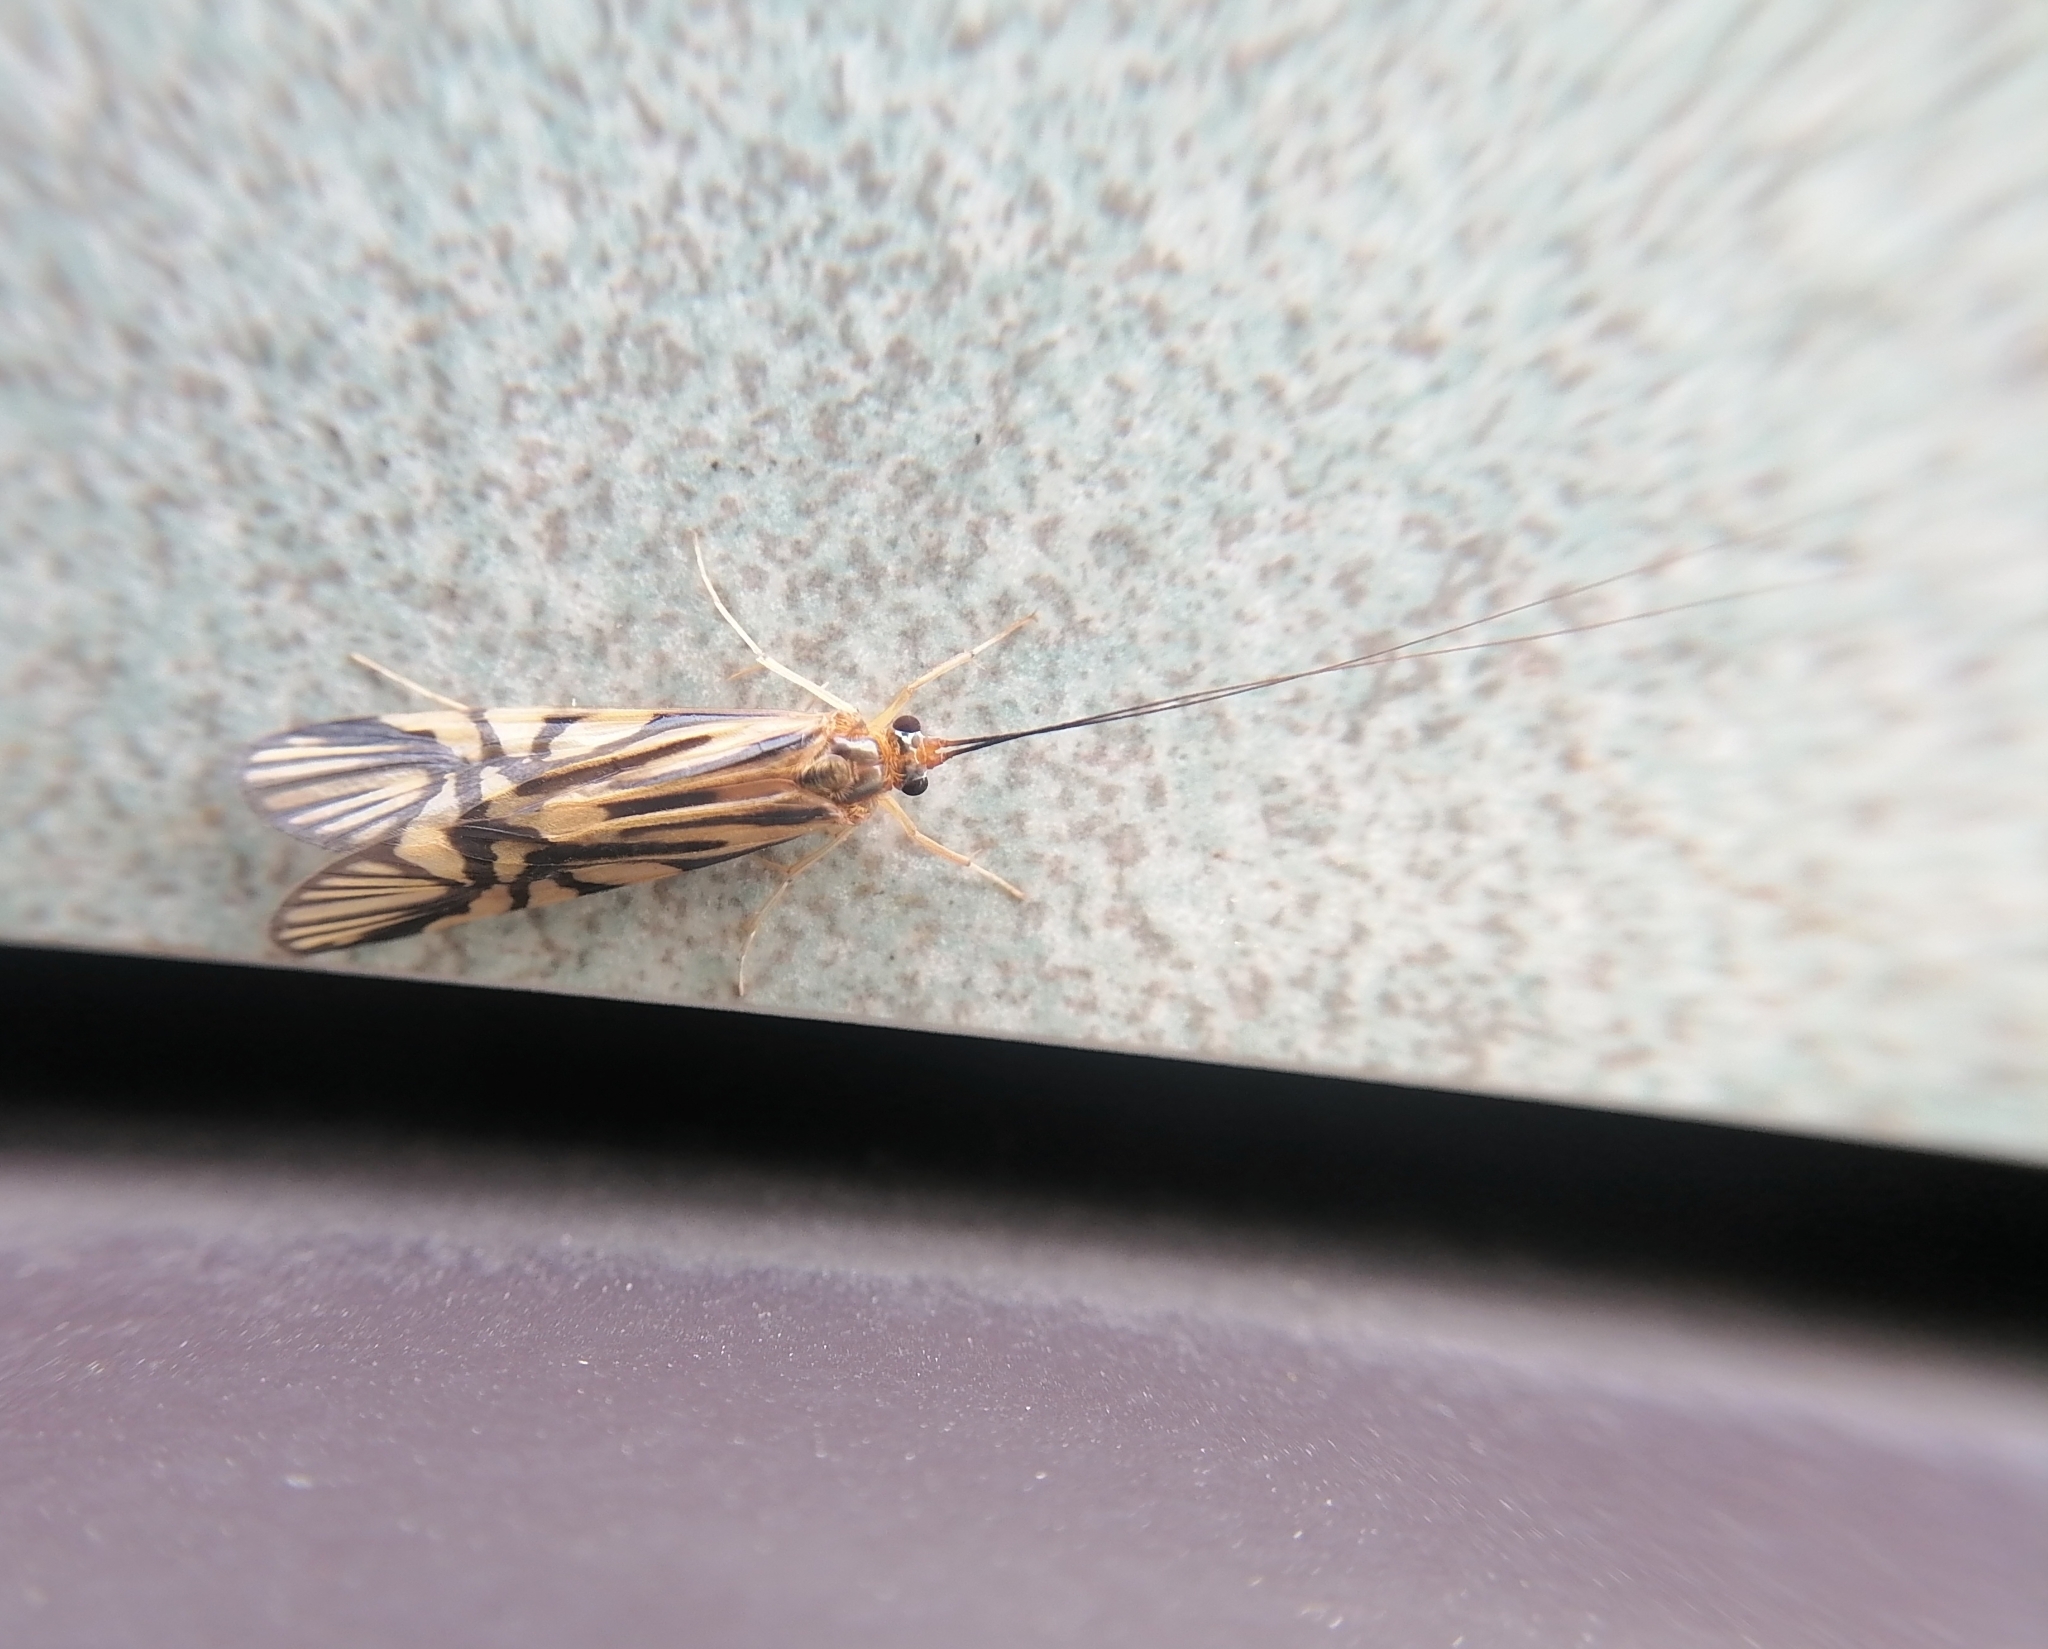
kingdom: Animalia
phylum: Arthropoda
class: Insecta
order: Trichoptera
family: Hydropsychidae
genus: Macrostemum
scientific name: Macrostemum radiatum
